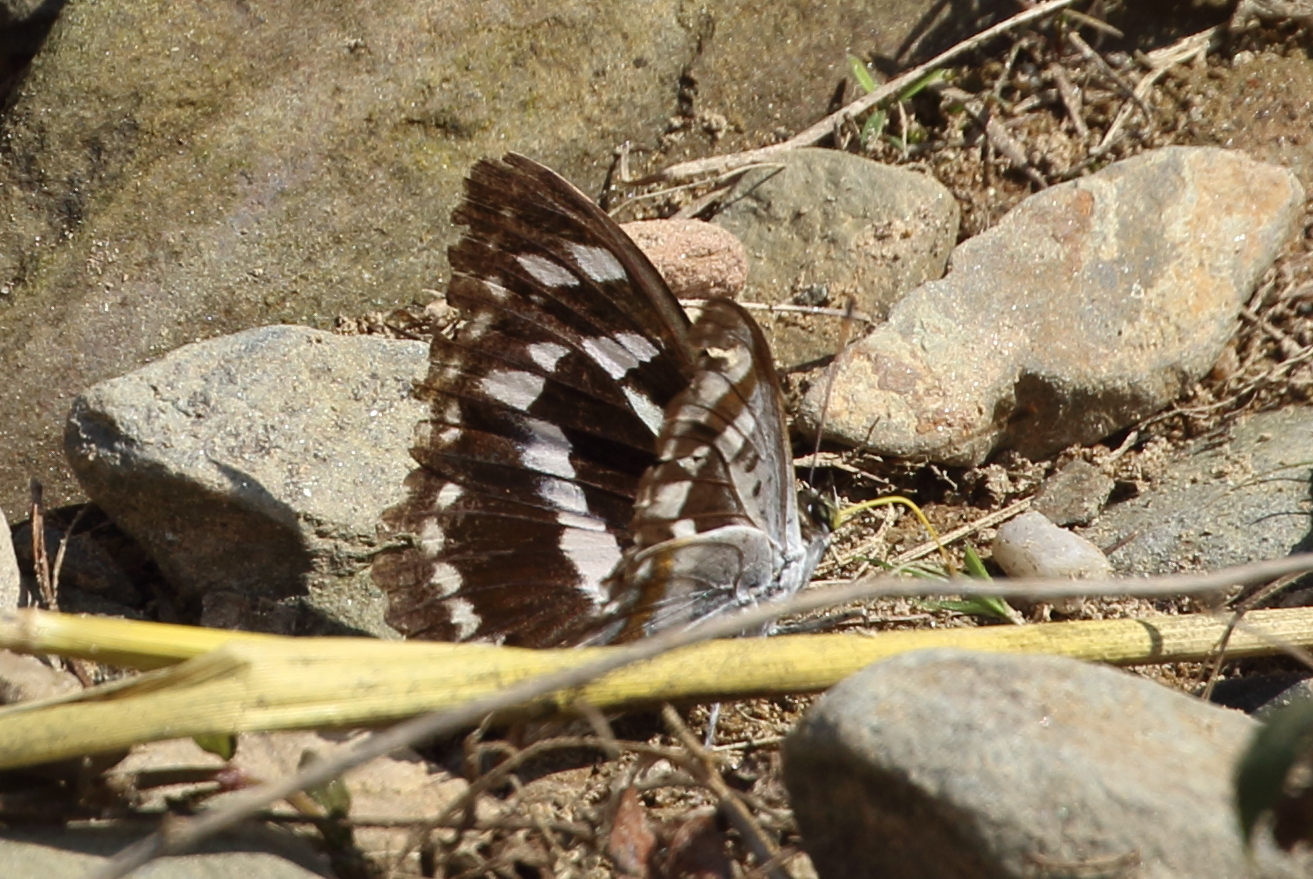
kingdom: Animalia
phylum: Arthropoda
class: Insecta
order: Lepidoptera
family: Nymphalidae
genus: Apatura
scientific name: Apatura Mimathyma chevana
